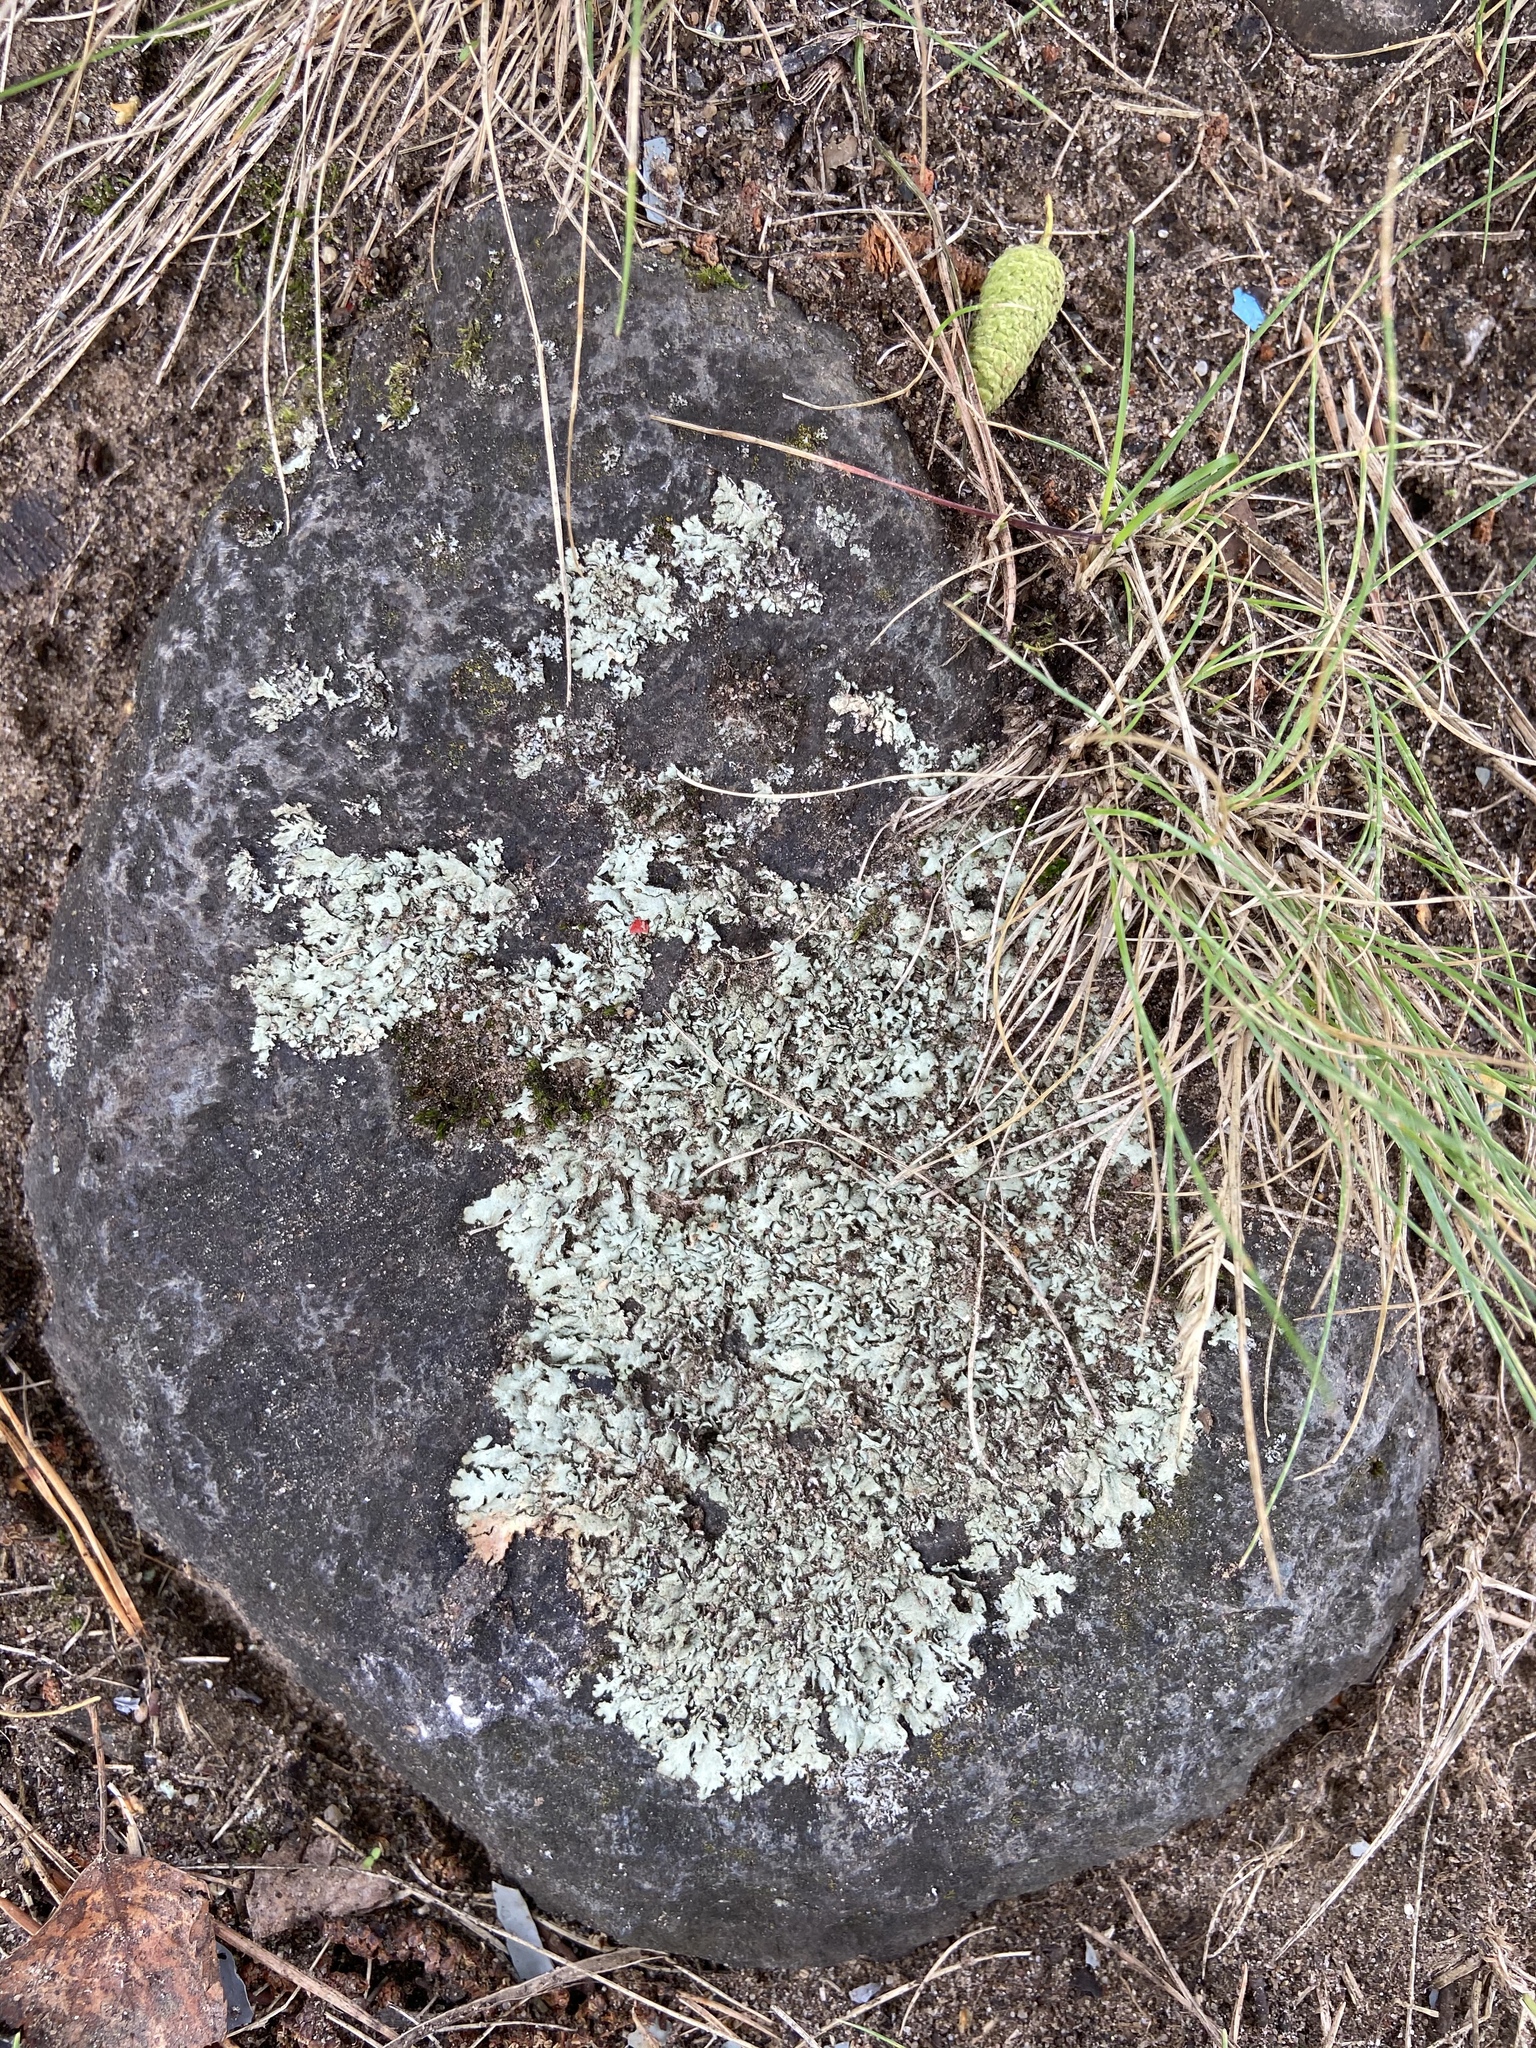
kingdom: Fungi
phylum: Ascomycota
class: Lecanoromycetes
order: Lecanorales
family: Parmeliaceae
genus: Xanthoparmelia
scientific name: Xanthoparmelia stenophylla
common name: Shingled rock shield
